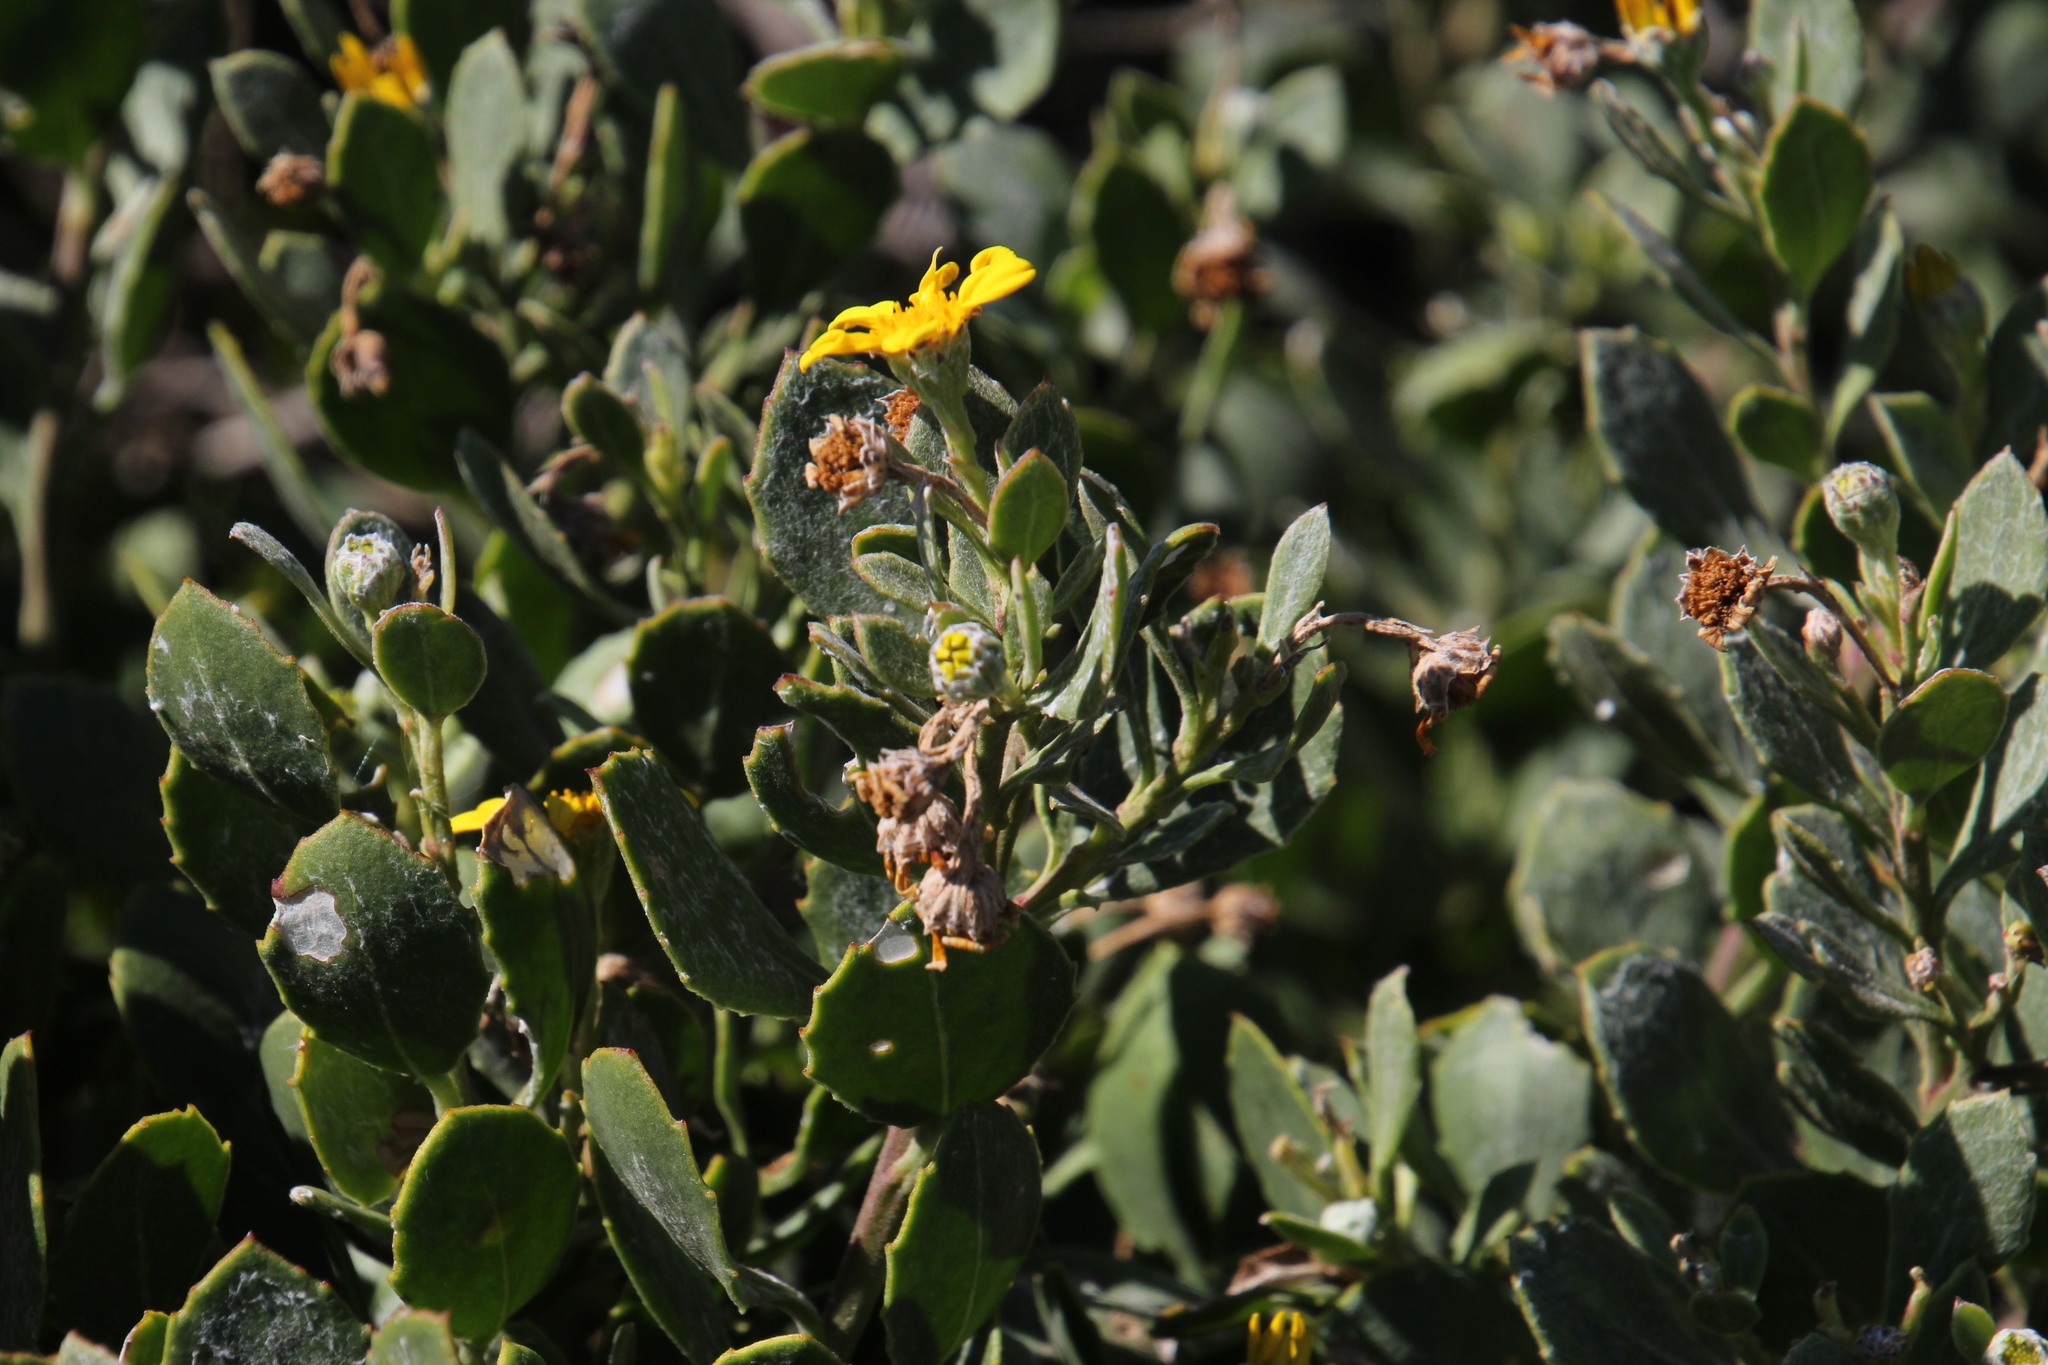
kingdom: Plantae
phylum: Tracheophyta
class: Magnoliopsida
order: Asterales
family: Asteraceae
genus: Osteospermum
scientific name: Osteospermum moniliferum
